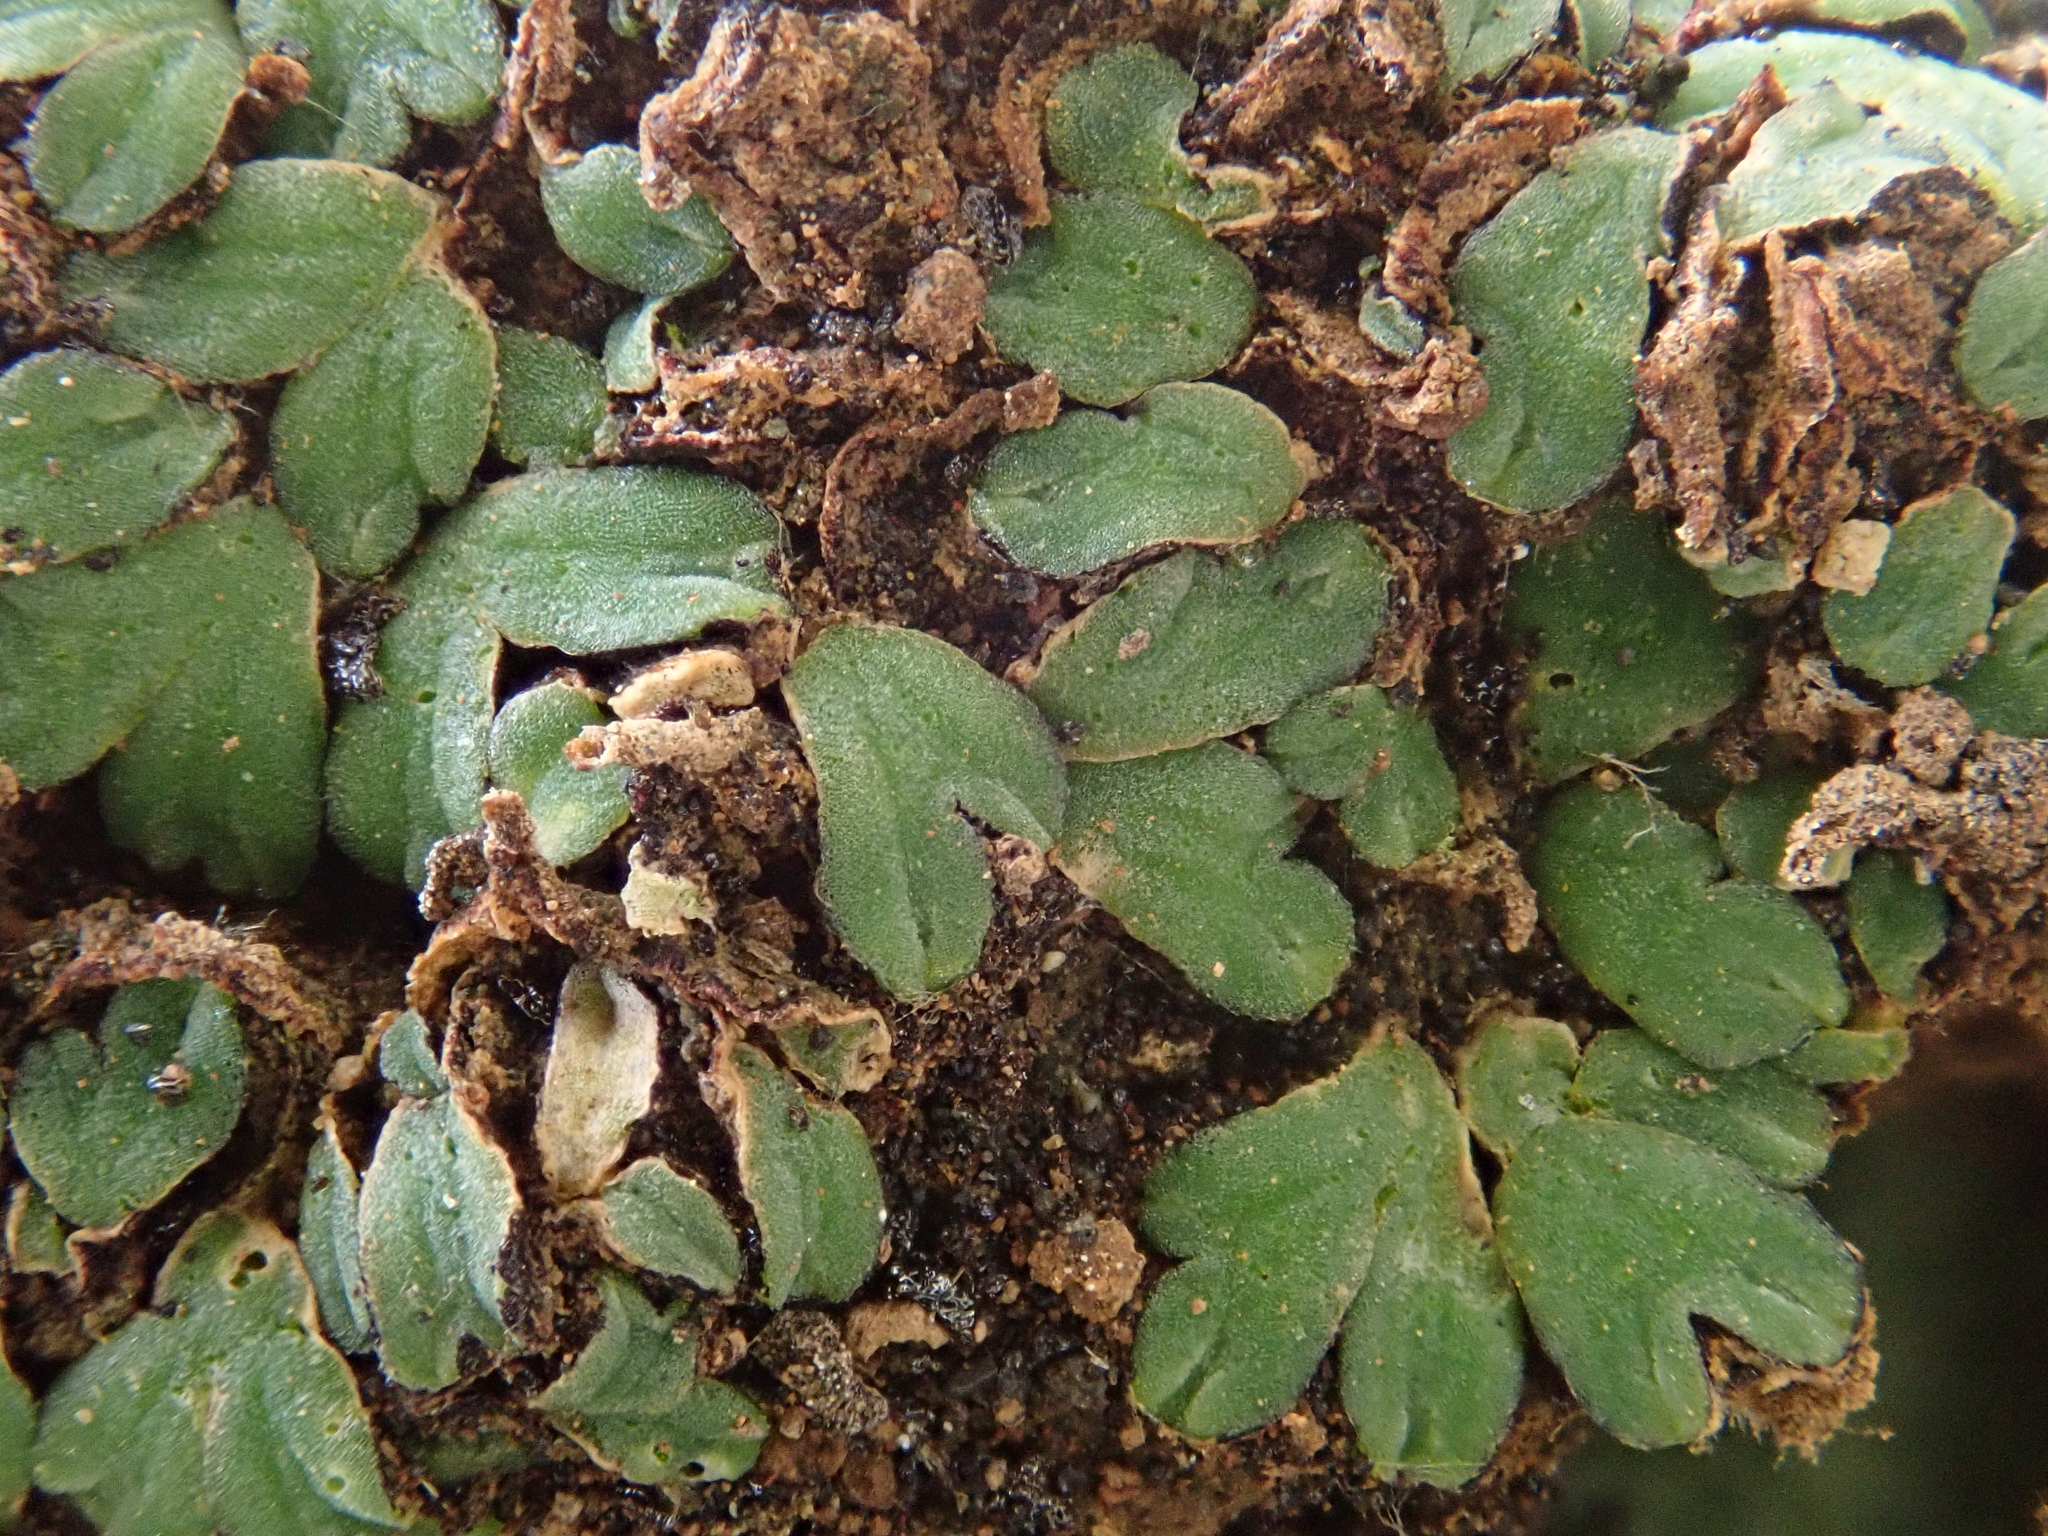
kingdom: Plantae
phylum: Marchantiophyta
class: Marchantiopsida
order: Marchantiales
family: Ricciaceae
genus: Riccia
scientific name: Riccia trabutiana
